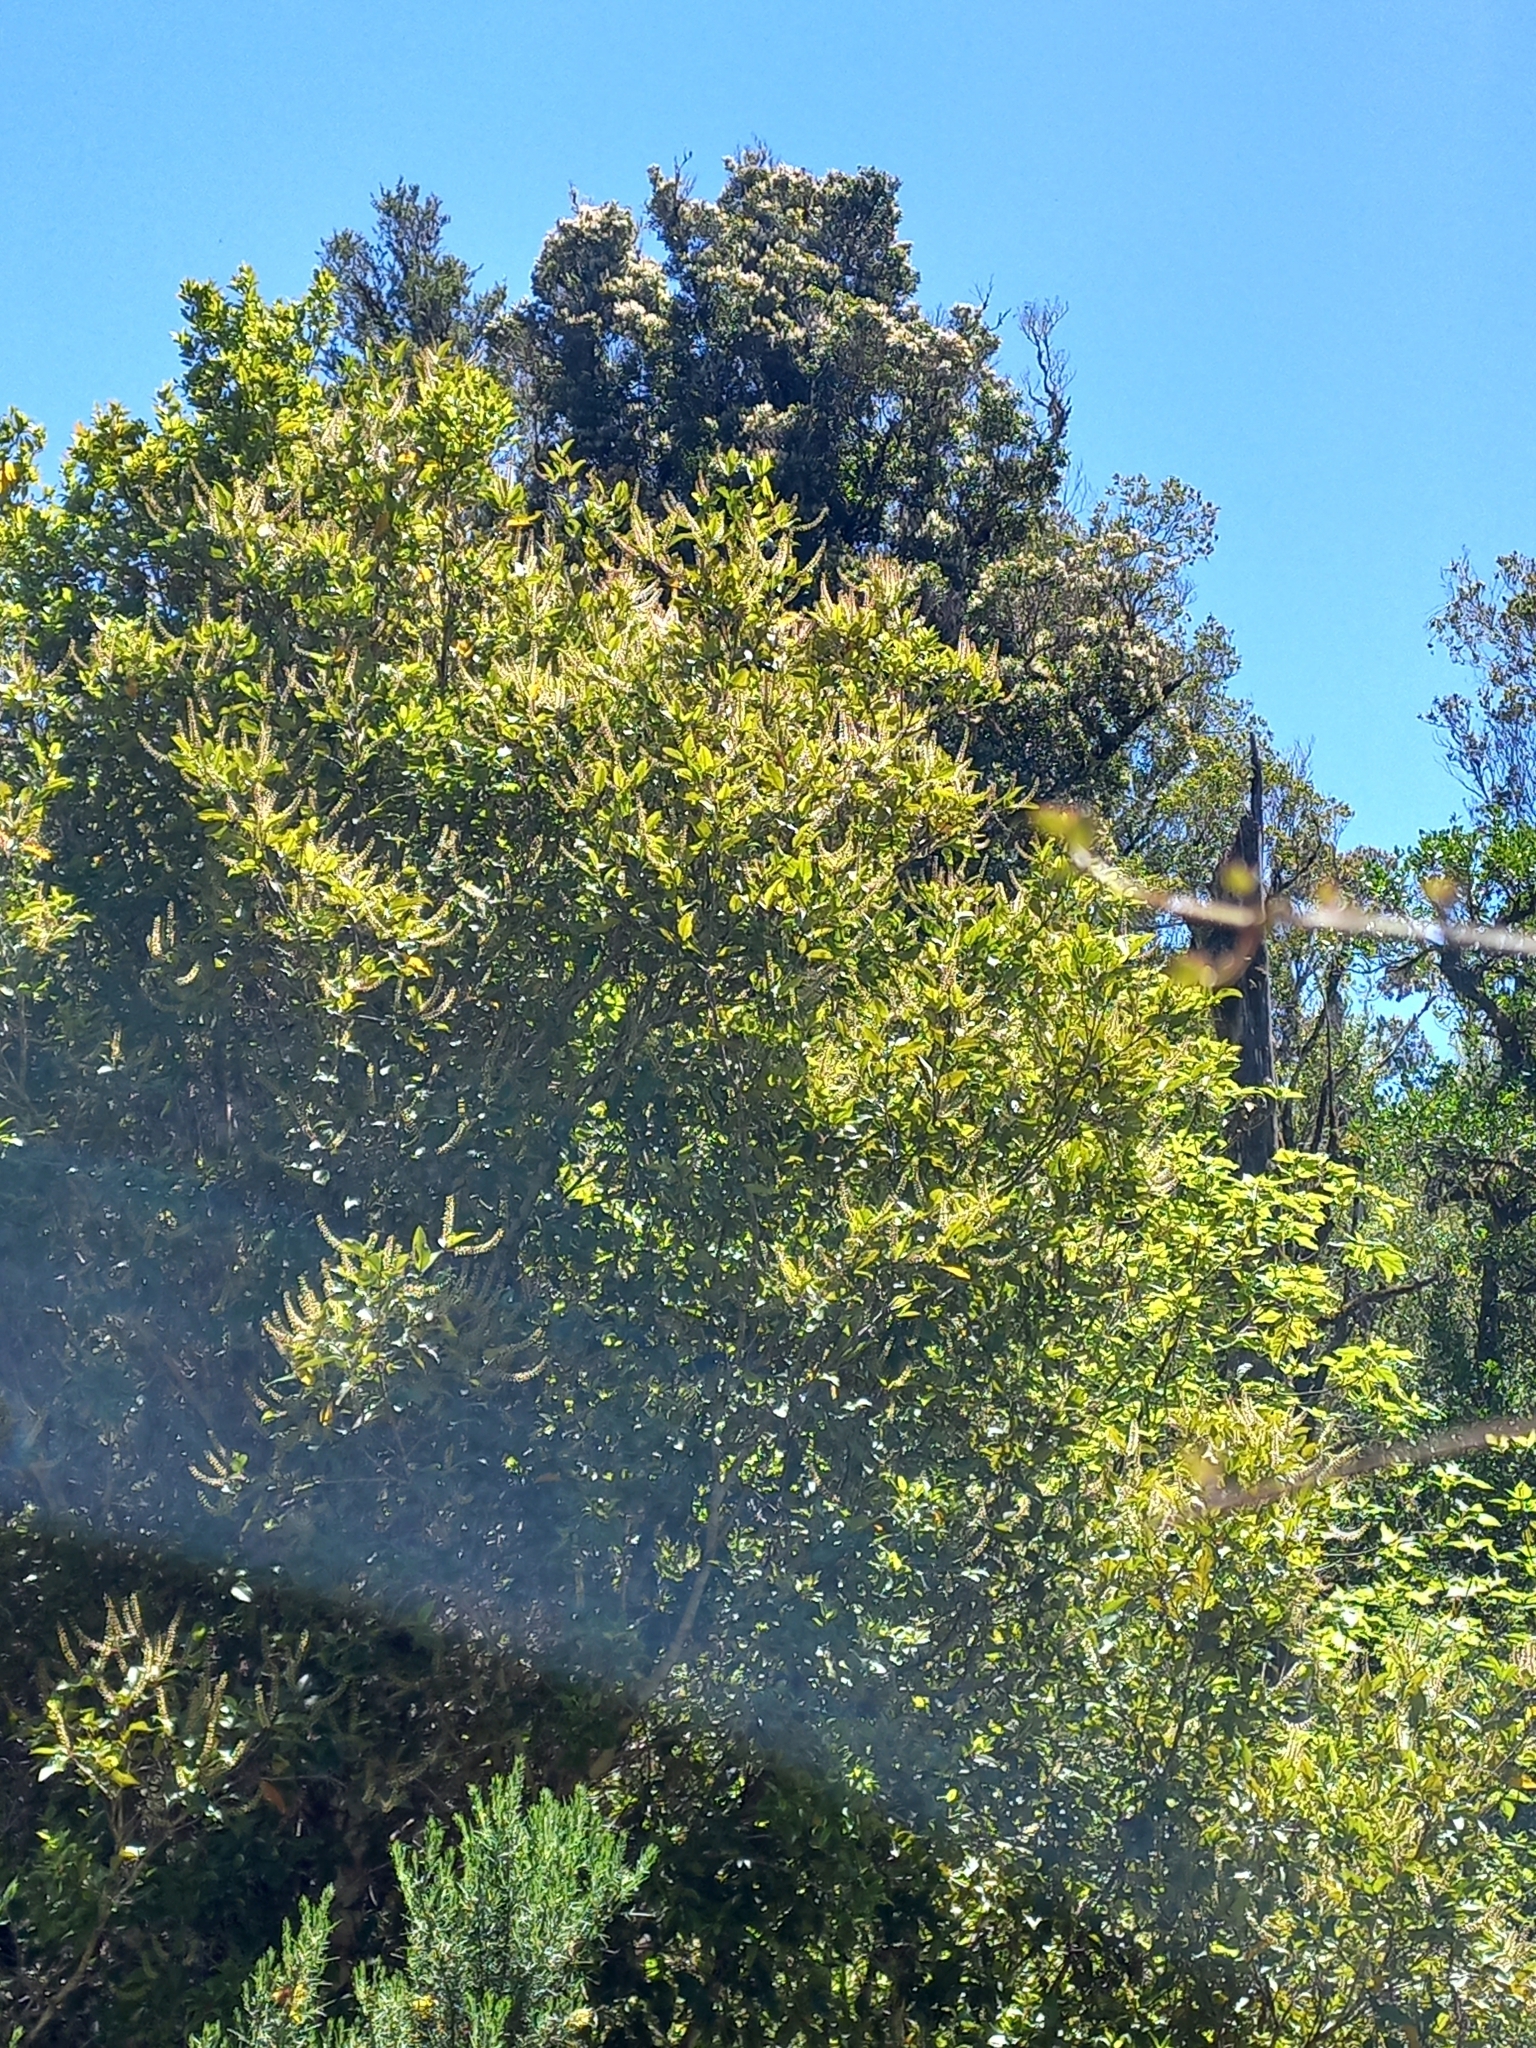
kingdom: Plantae
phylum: Tracheophyta
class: Magnoliopsida
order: Oxalidales
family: Cunoniaceae
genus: Pterophylla
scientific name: Pterophylla racemosa
